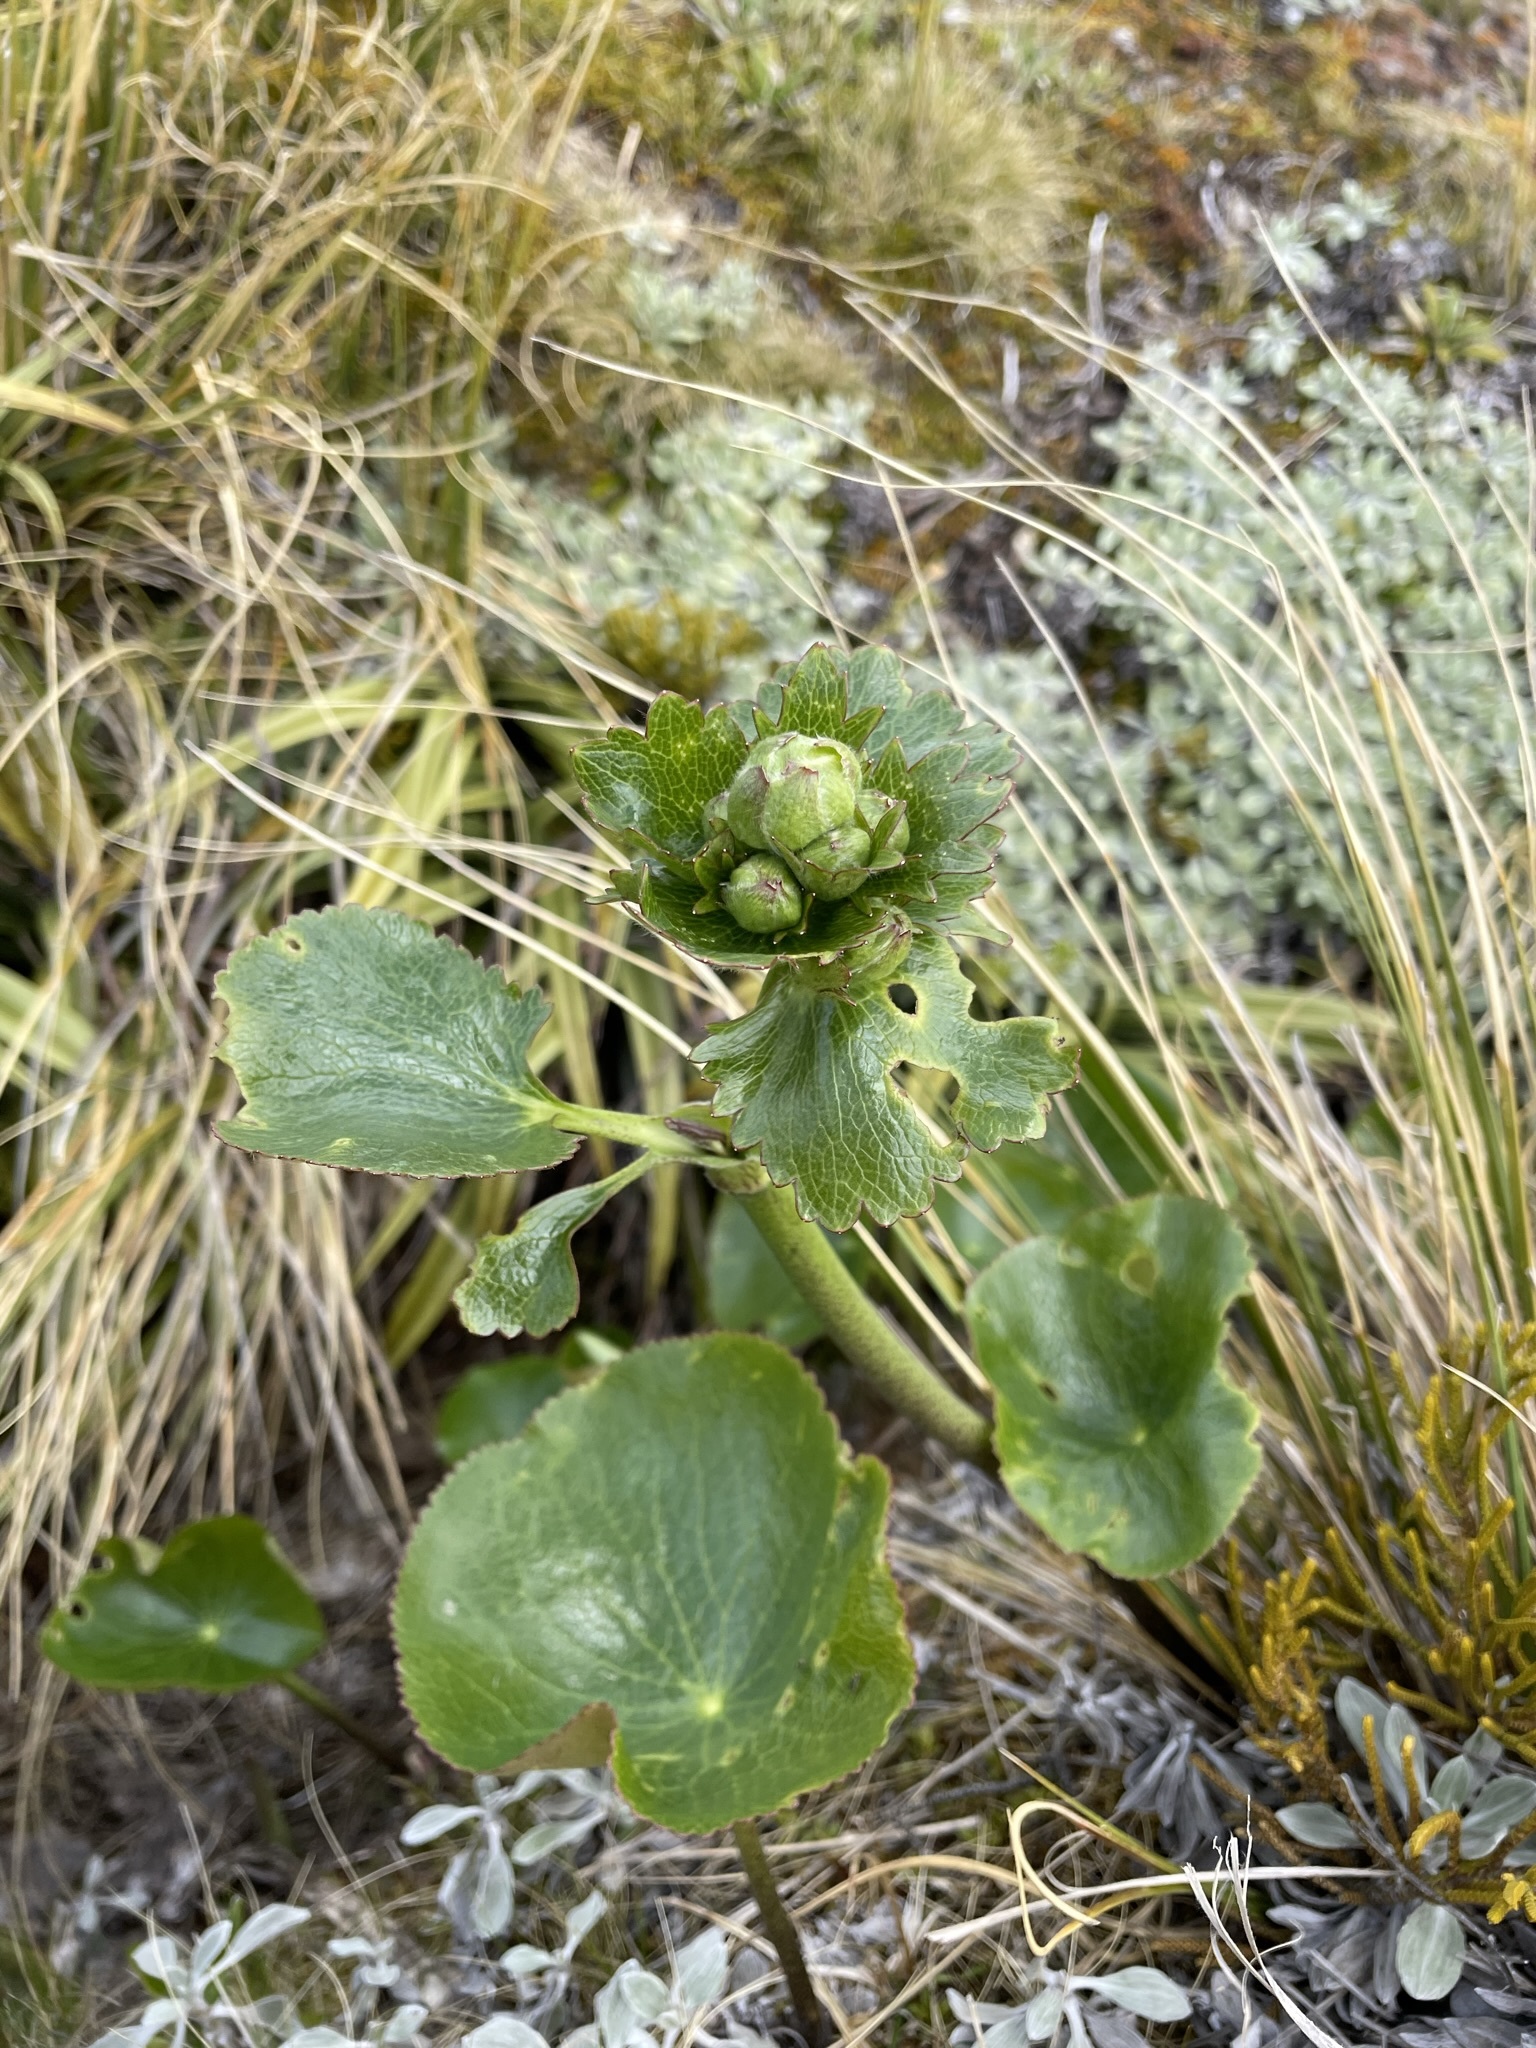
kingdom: Plantae
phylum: Tracheophyta
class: Magnoliopsida
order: Ranunculales
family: Ranunculaceae
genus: Ranunculus
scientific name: Ranunculus lyallii
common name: Mountain-lily
